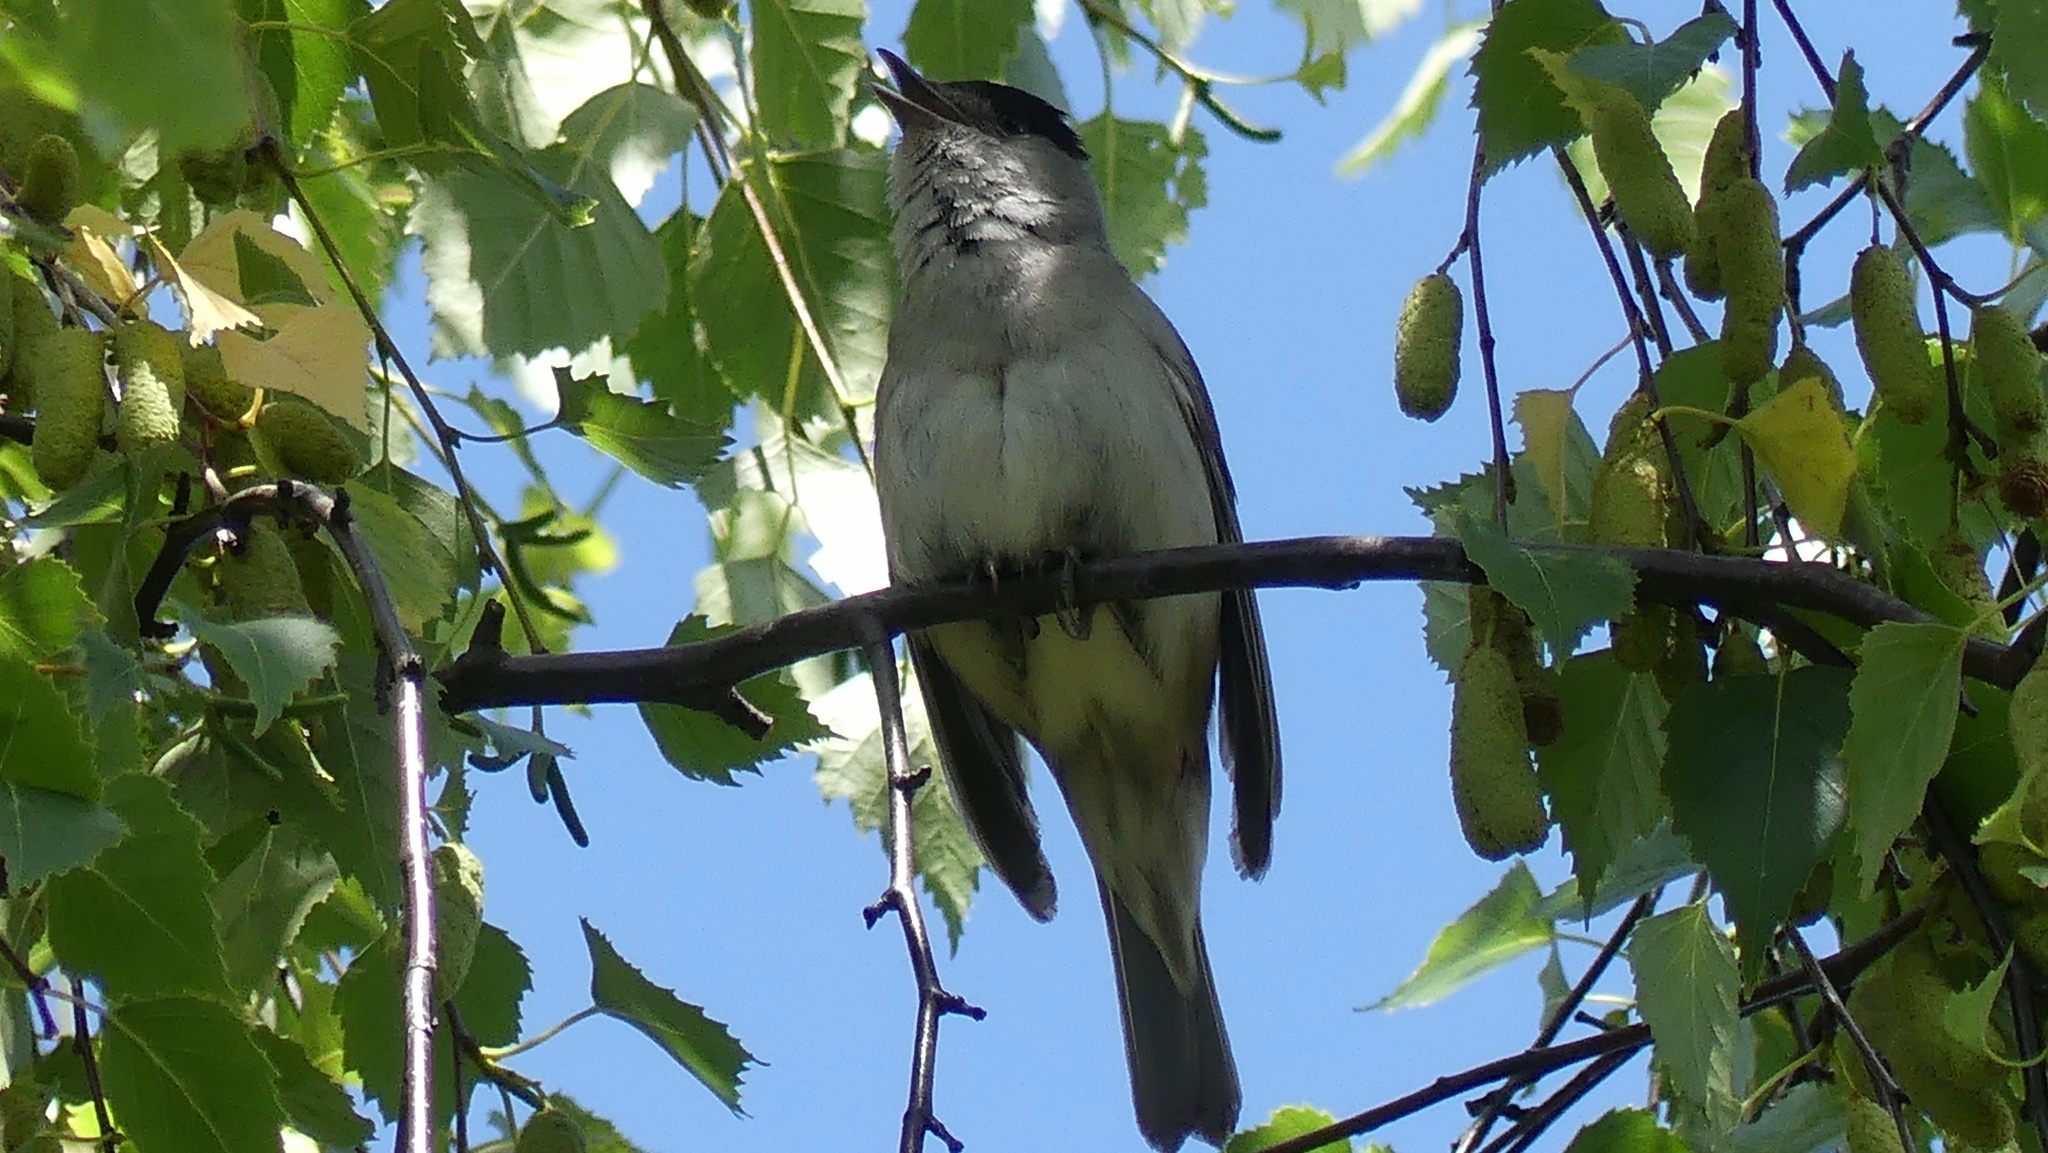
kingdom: Animalia
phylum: Chordata
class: Aves
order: Passeriformes
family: Sylviidae
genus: Sylvia
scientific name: Sylvia atricapilla
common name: Eurasian blackcap
